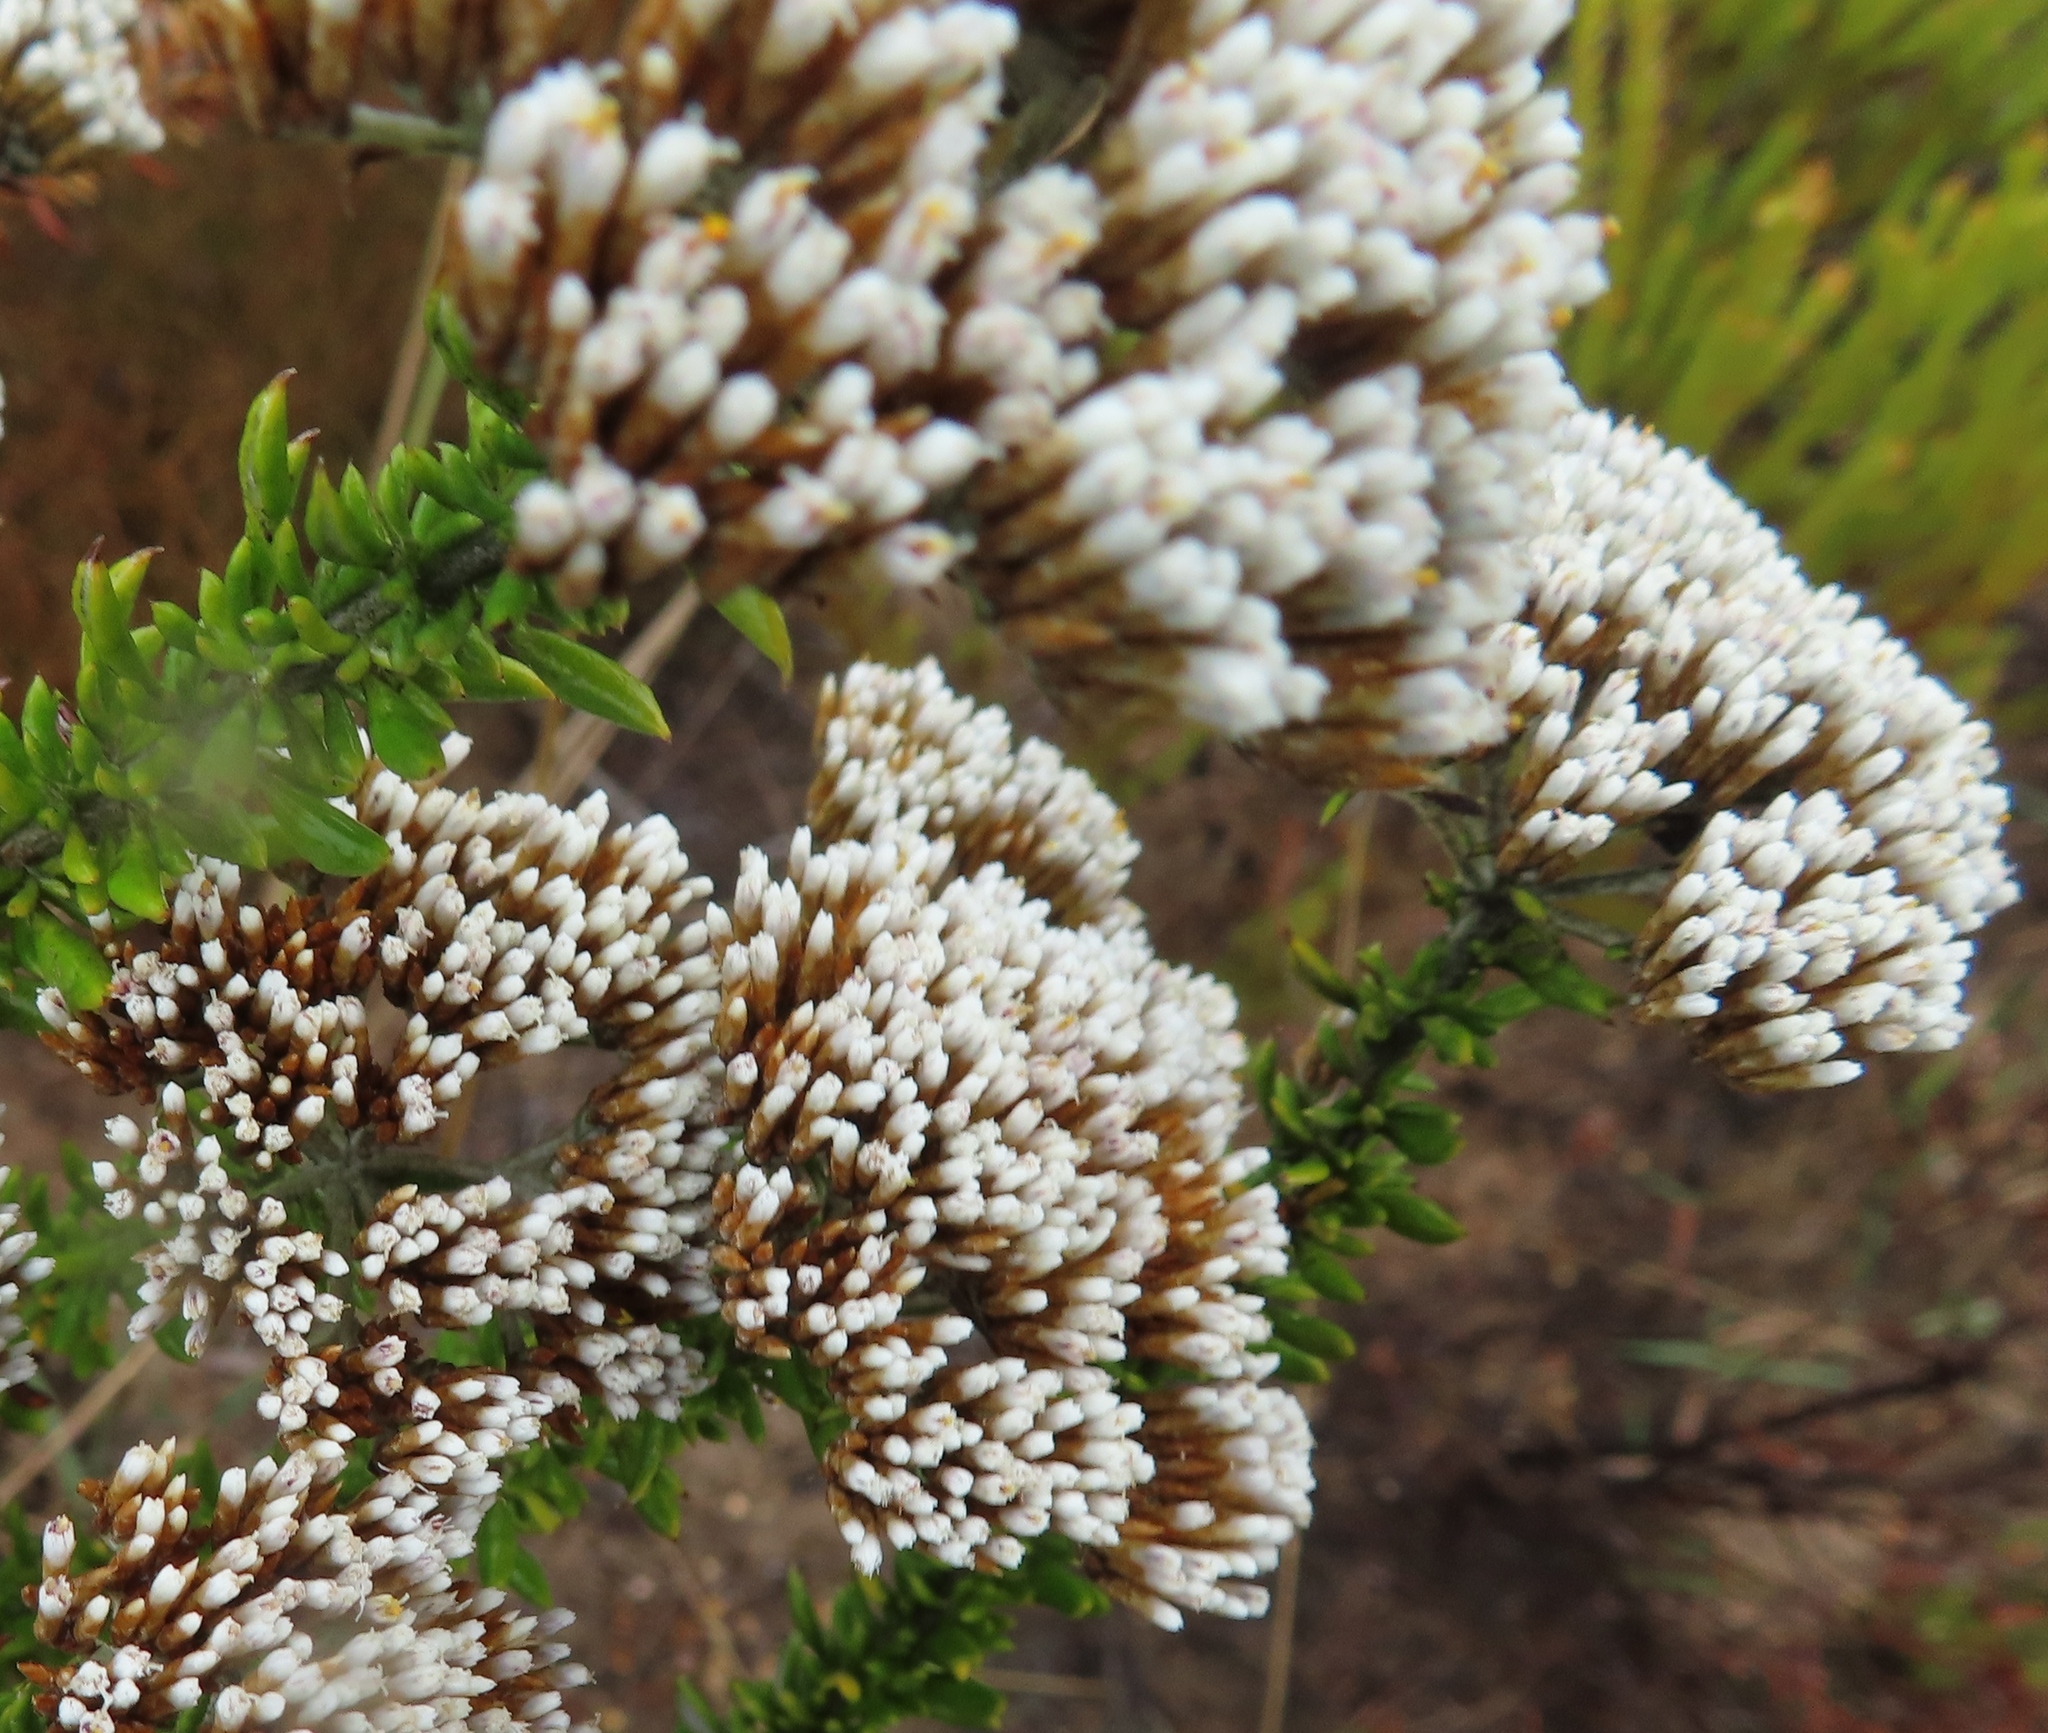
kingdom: Plantae
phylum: Tracheophyta
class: Magnoliopsida
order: Asterales
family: Asteraceae
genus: Metalasia
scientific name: Metalasia densa
